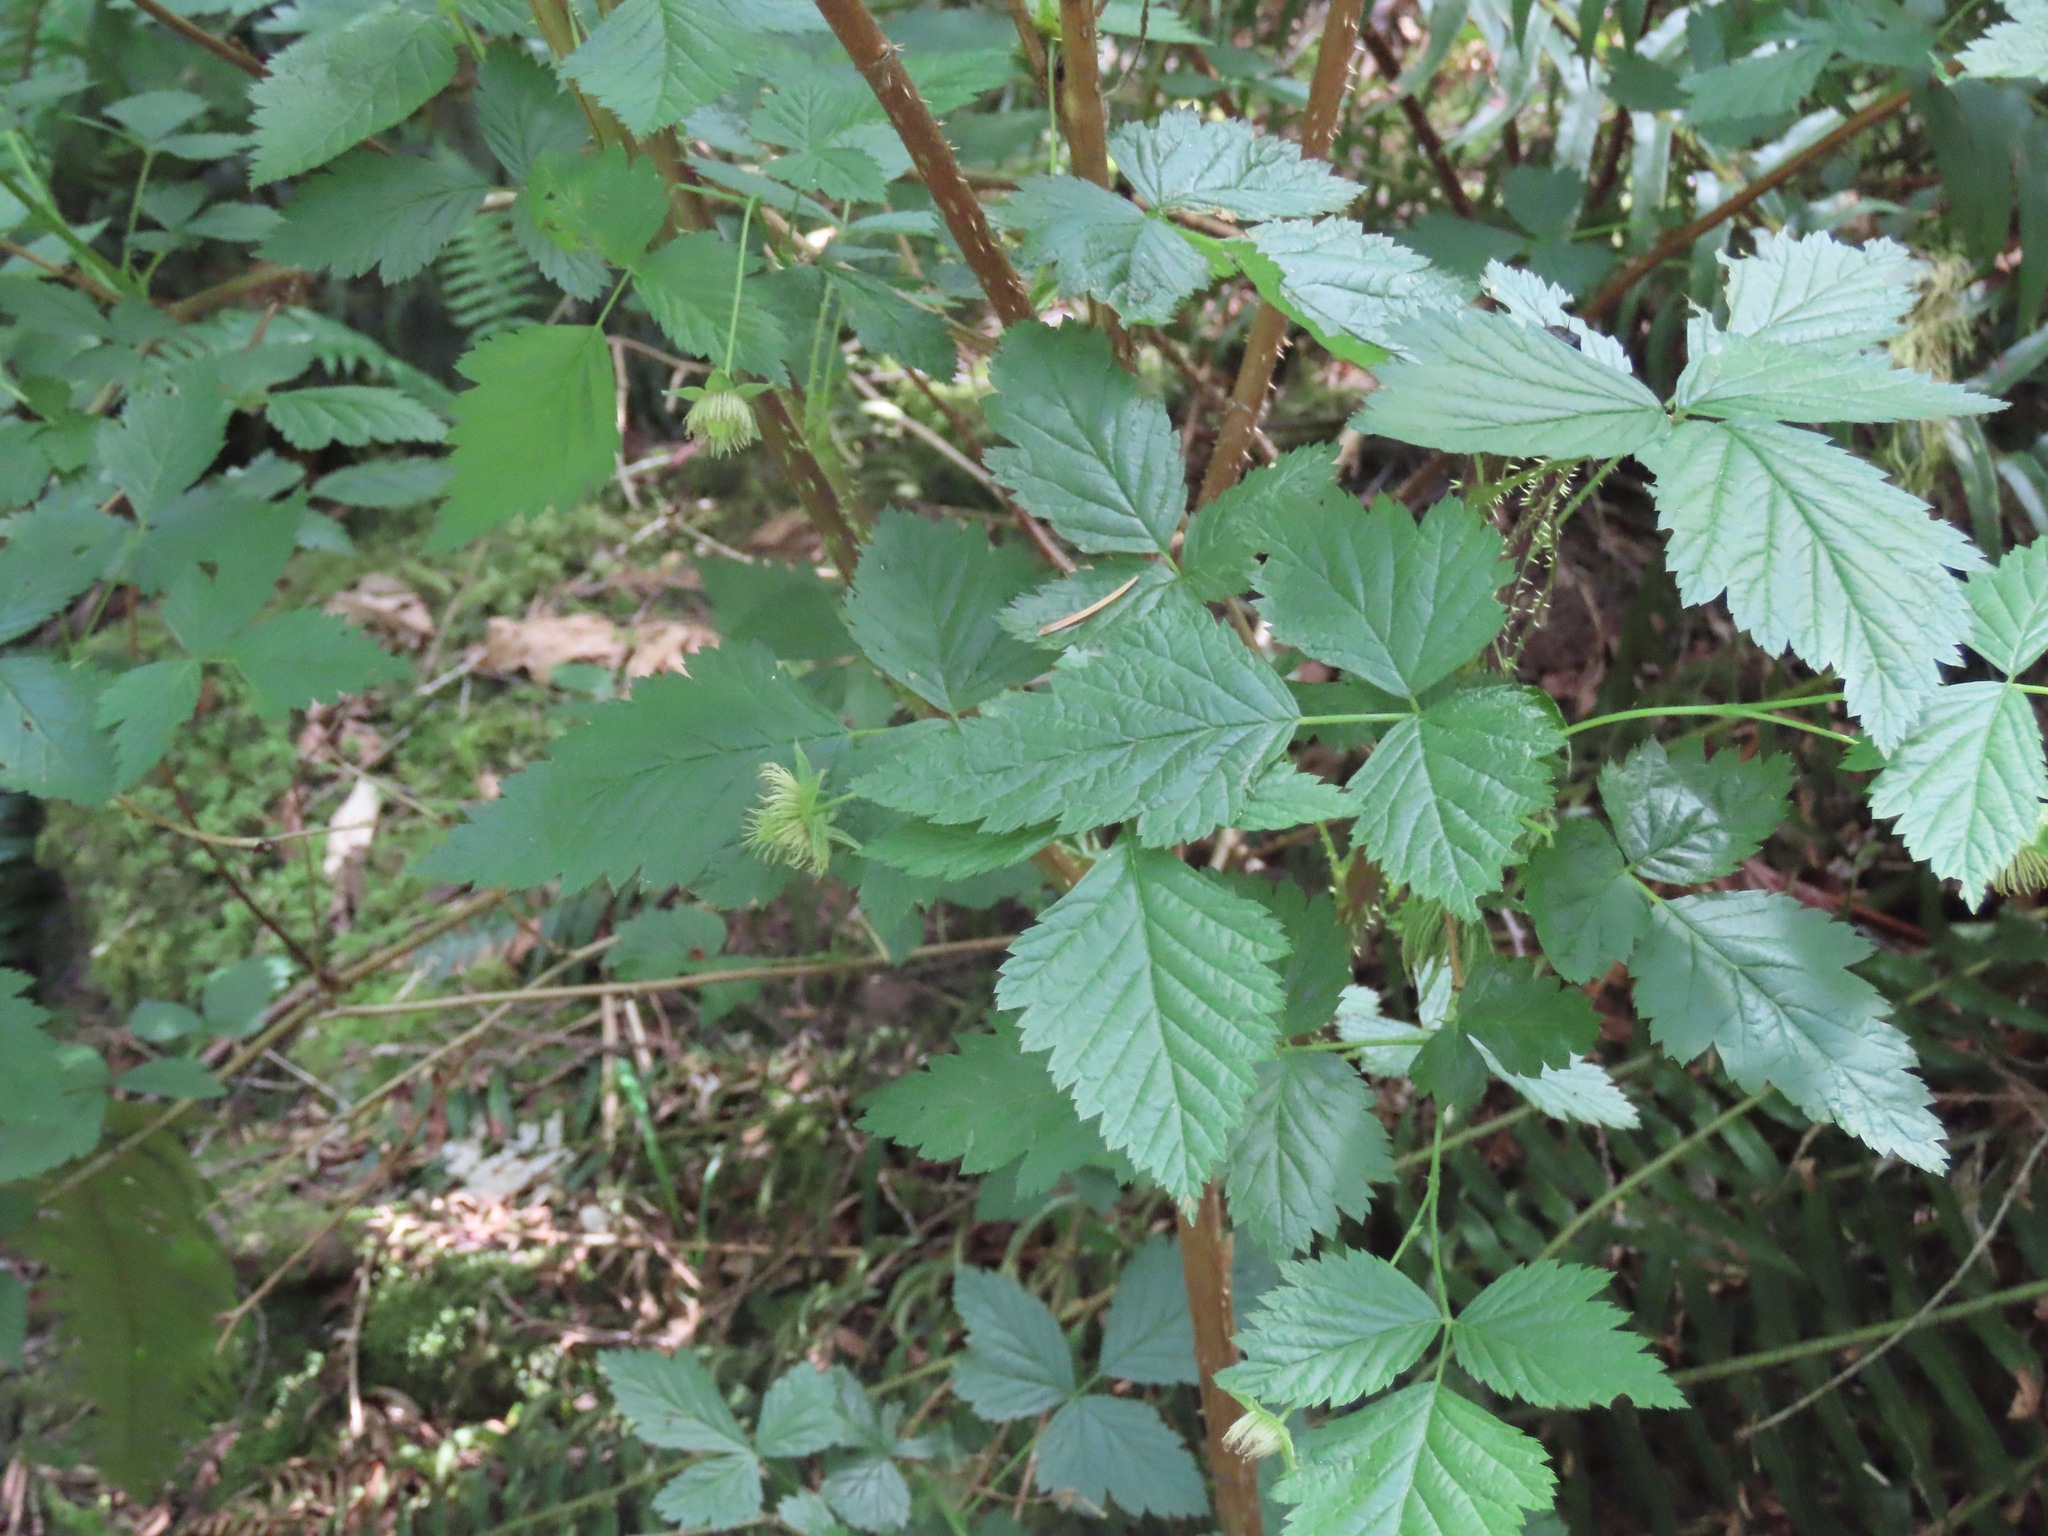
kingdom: Plantae
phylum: Tracheophyta
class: Magnoliopsida
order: Rosales
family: Rosaceae
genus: Rubus
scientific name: Rubus spectabilis
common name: Salmonberry
